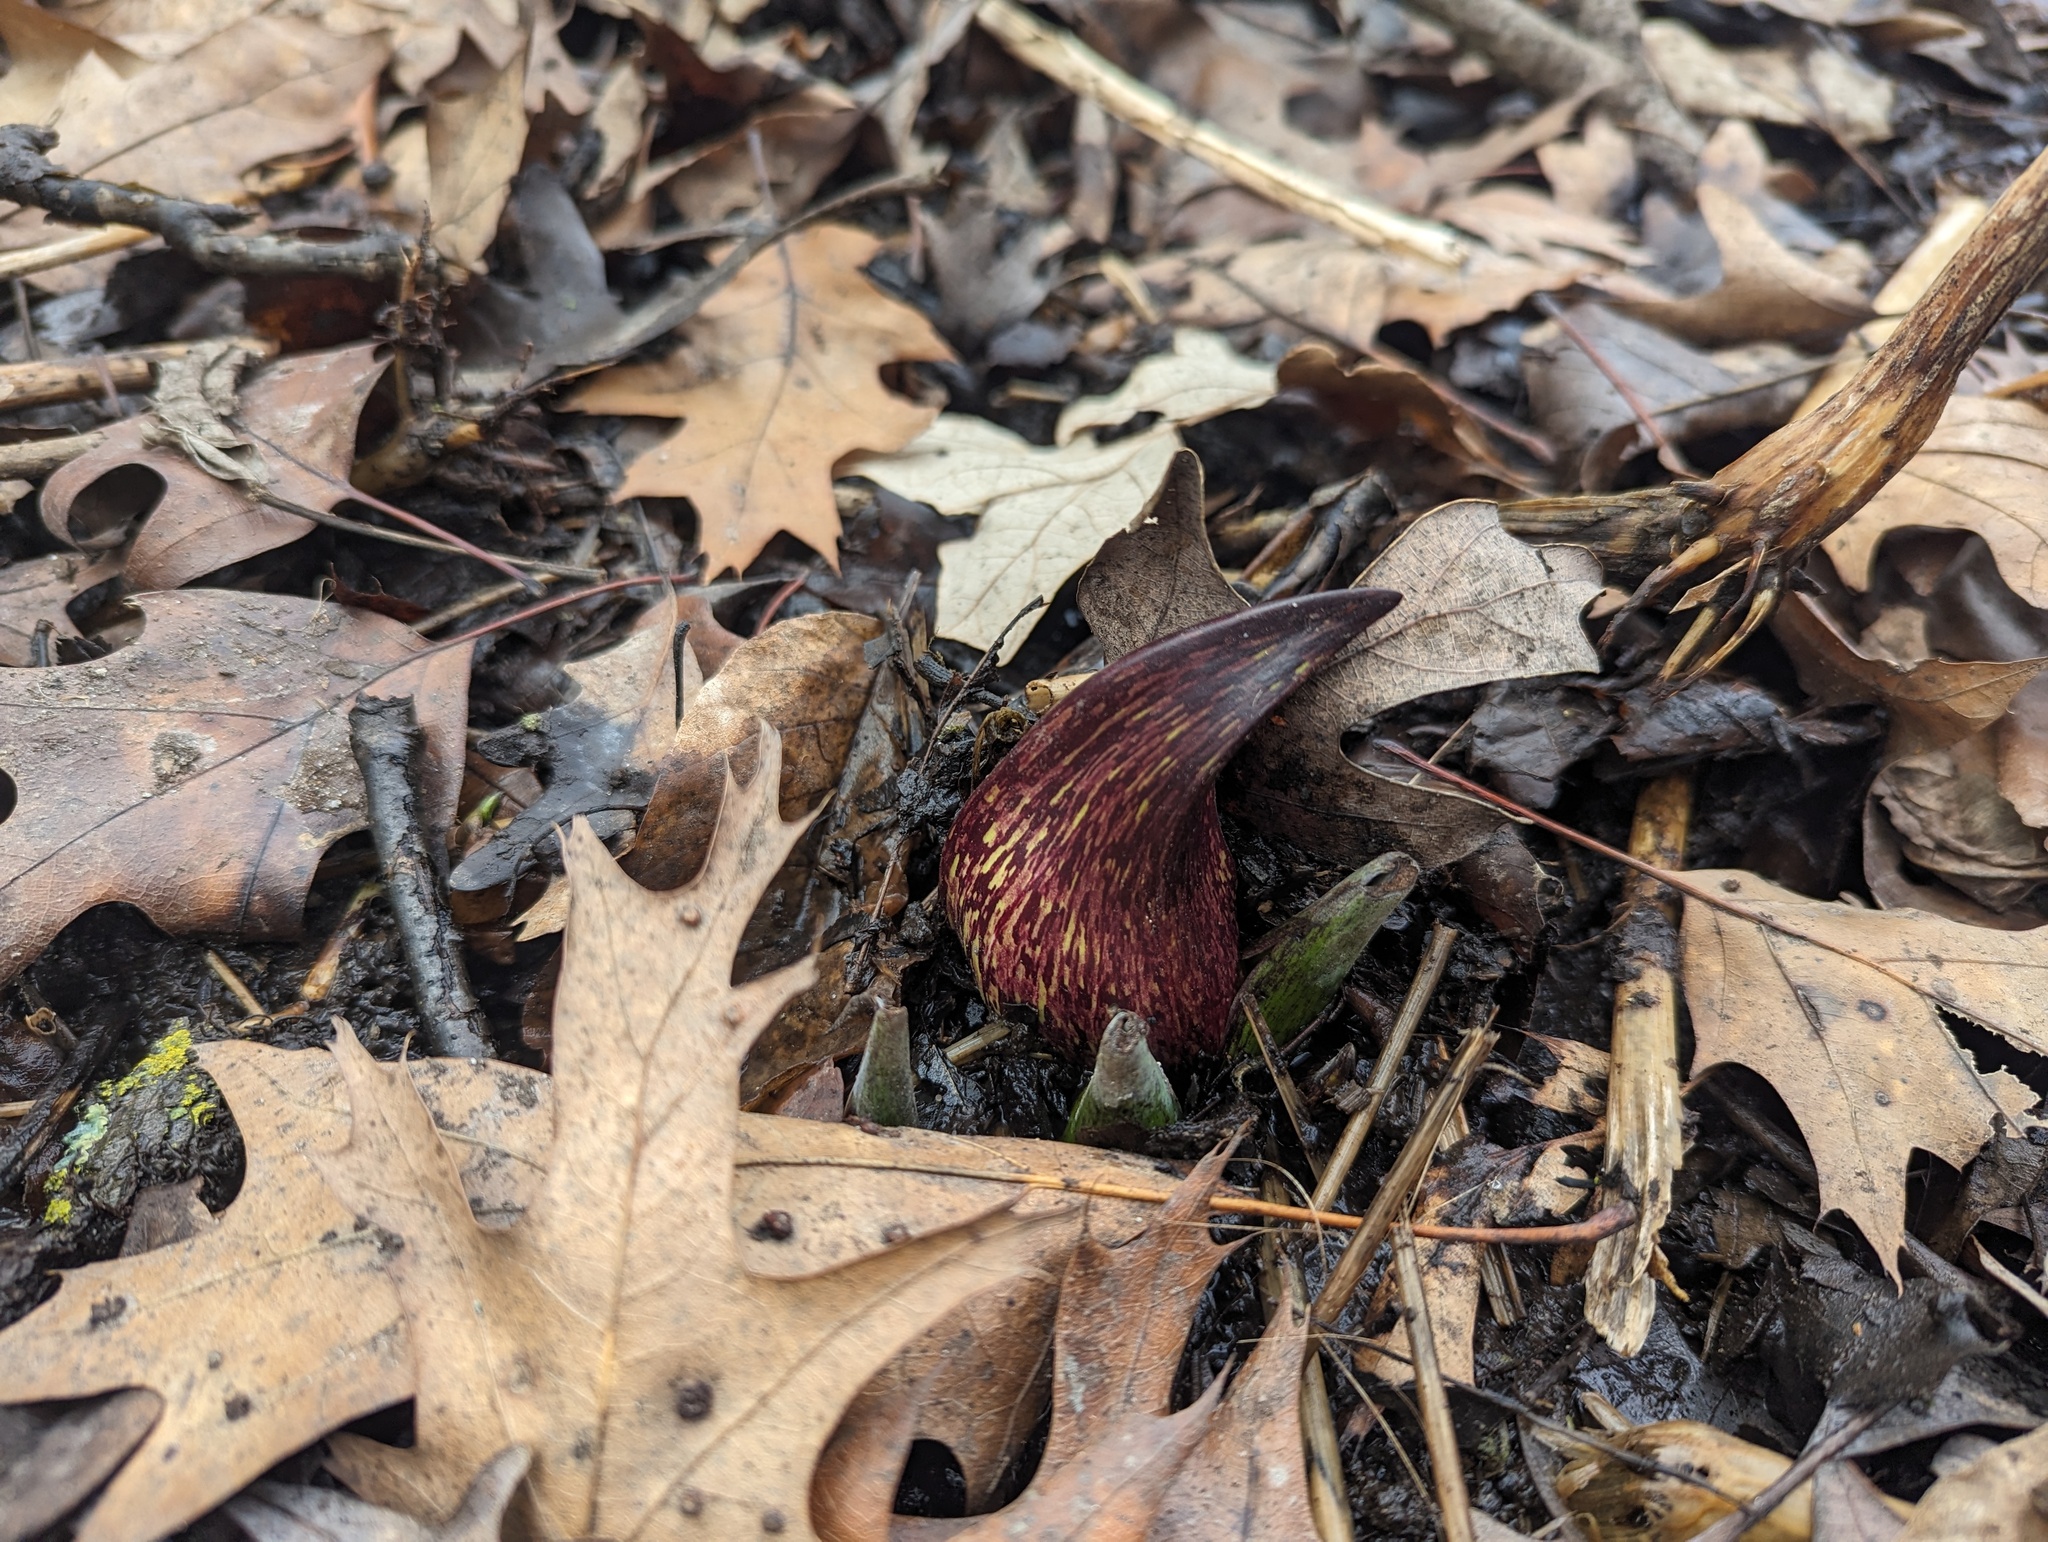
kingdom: Plantae
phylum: Tracheophyta
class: Liliopsida
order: Alismatales
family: Araceae
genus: Symplocarpus
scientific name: Symplocarpus foetidus
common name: Eastern skunk cabbage
